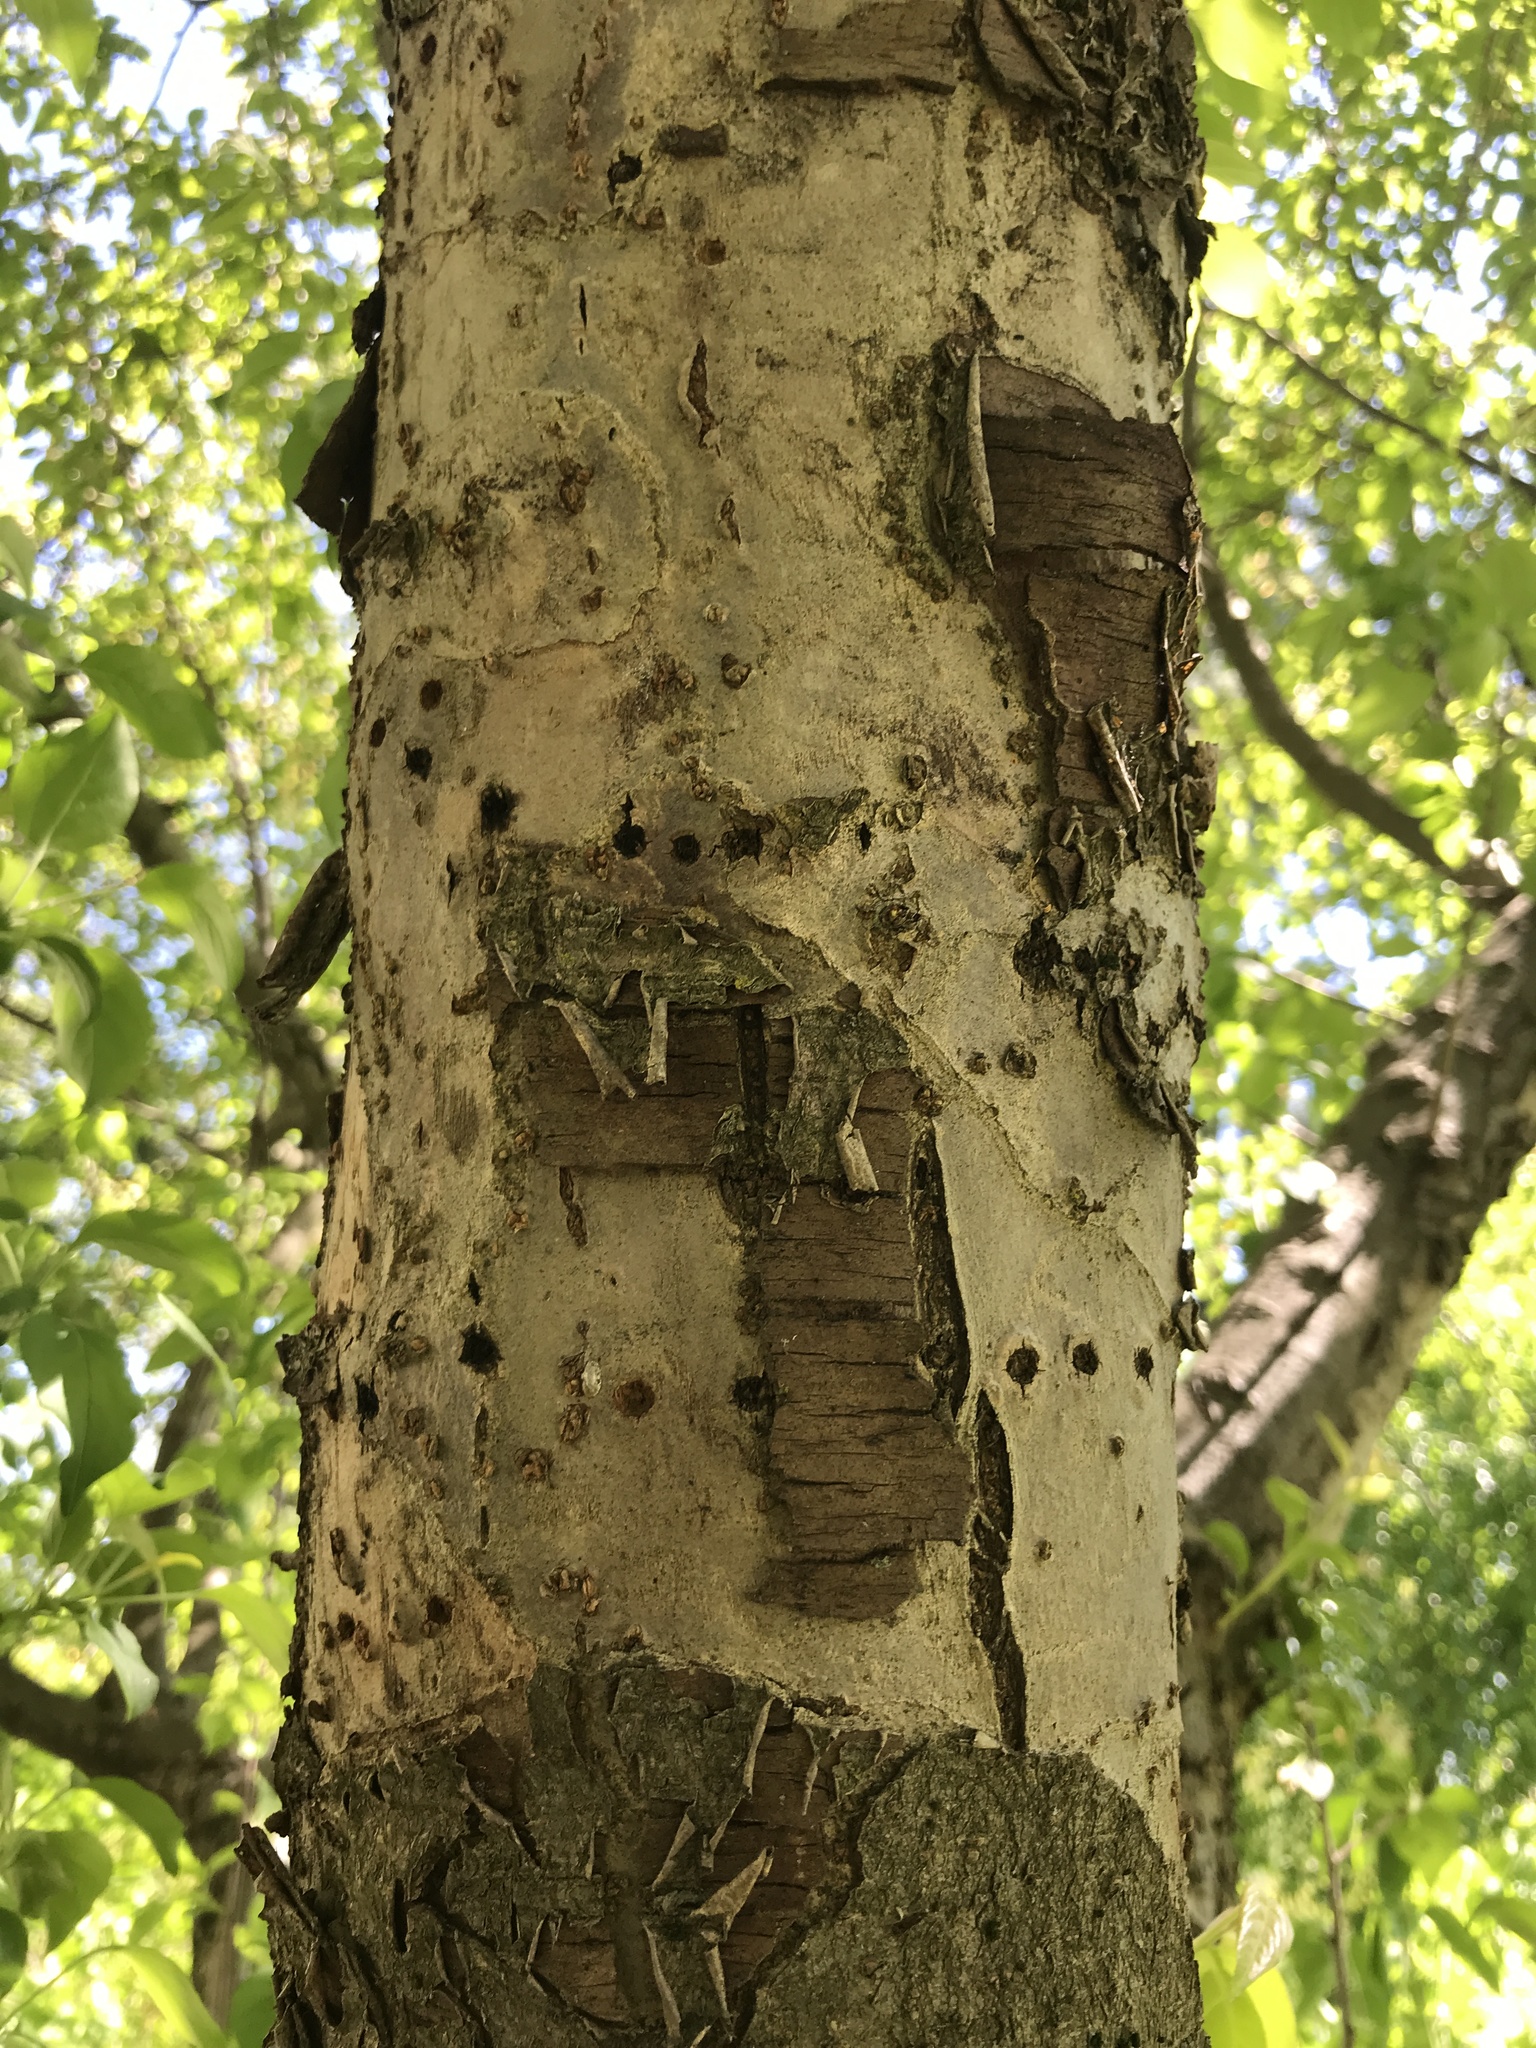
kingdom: Animalia
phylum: Chordata
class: Aves
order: Piciformes
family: Picidae
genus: Sphyrapicus
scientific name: Sphyrapicus varius
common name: Yellow-bellied sapsucker
